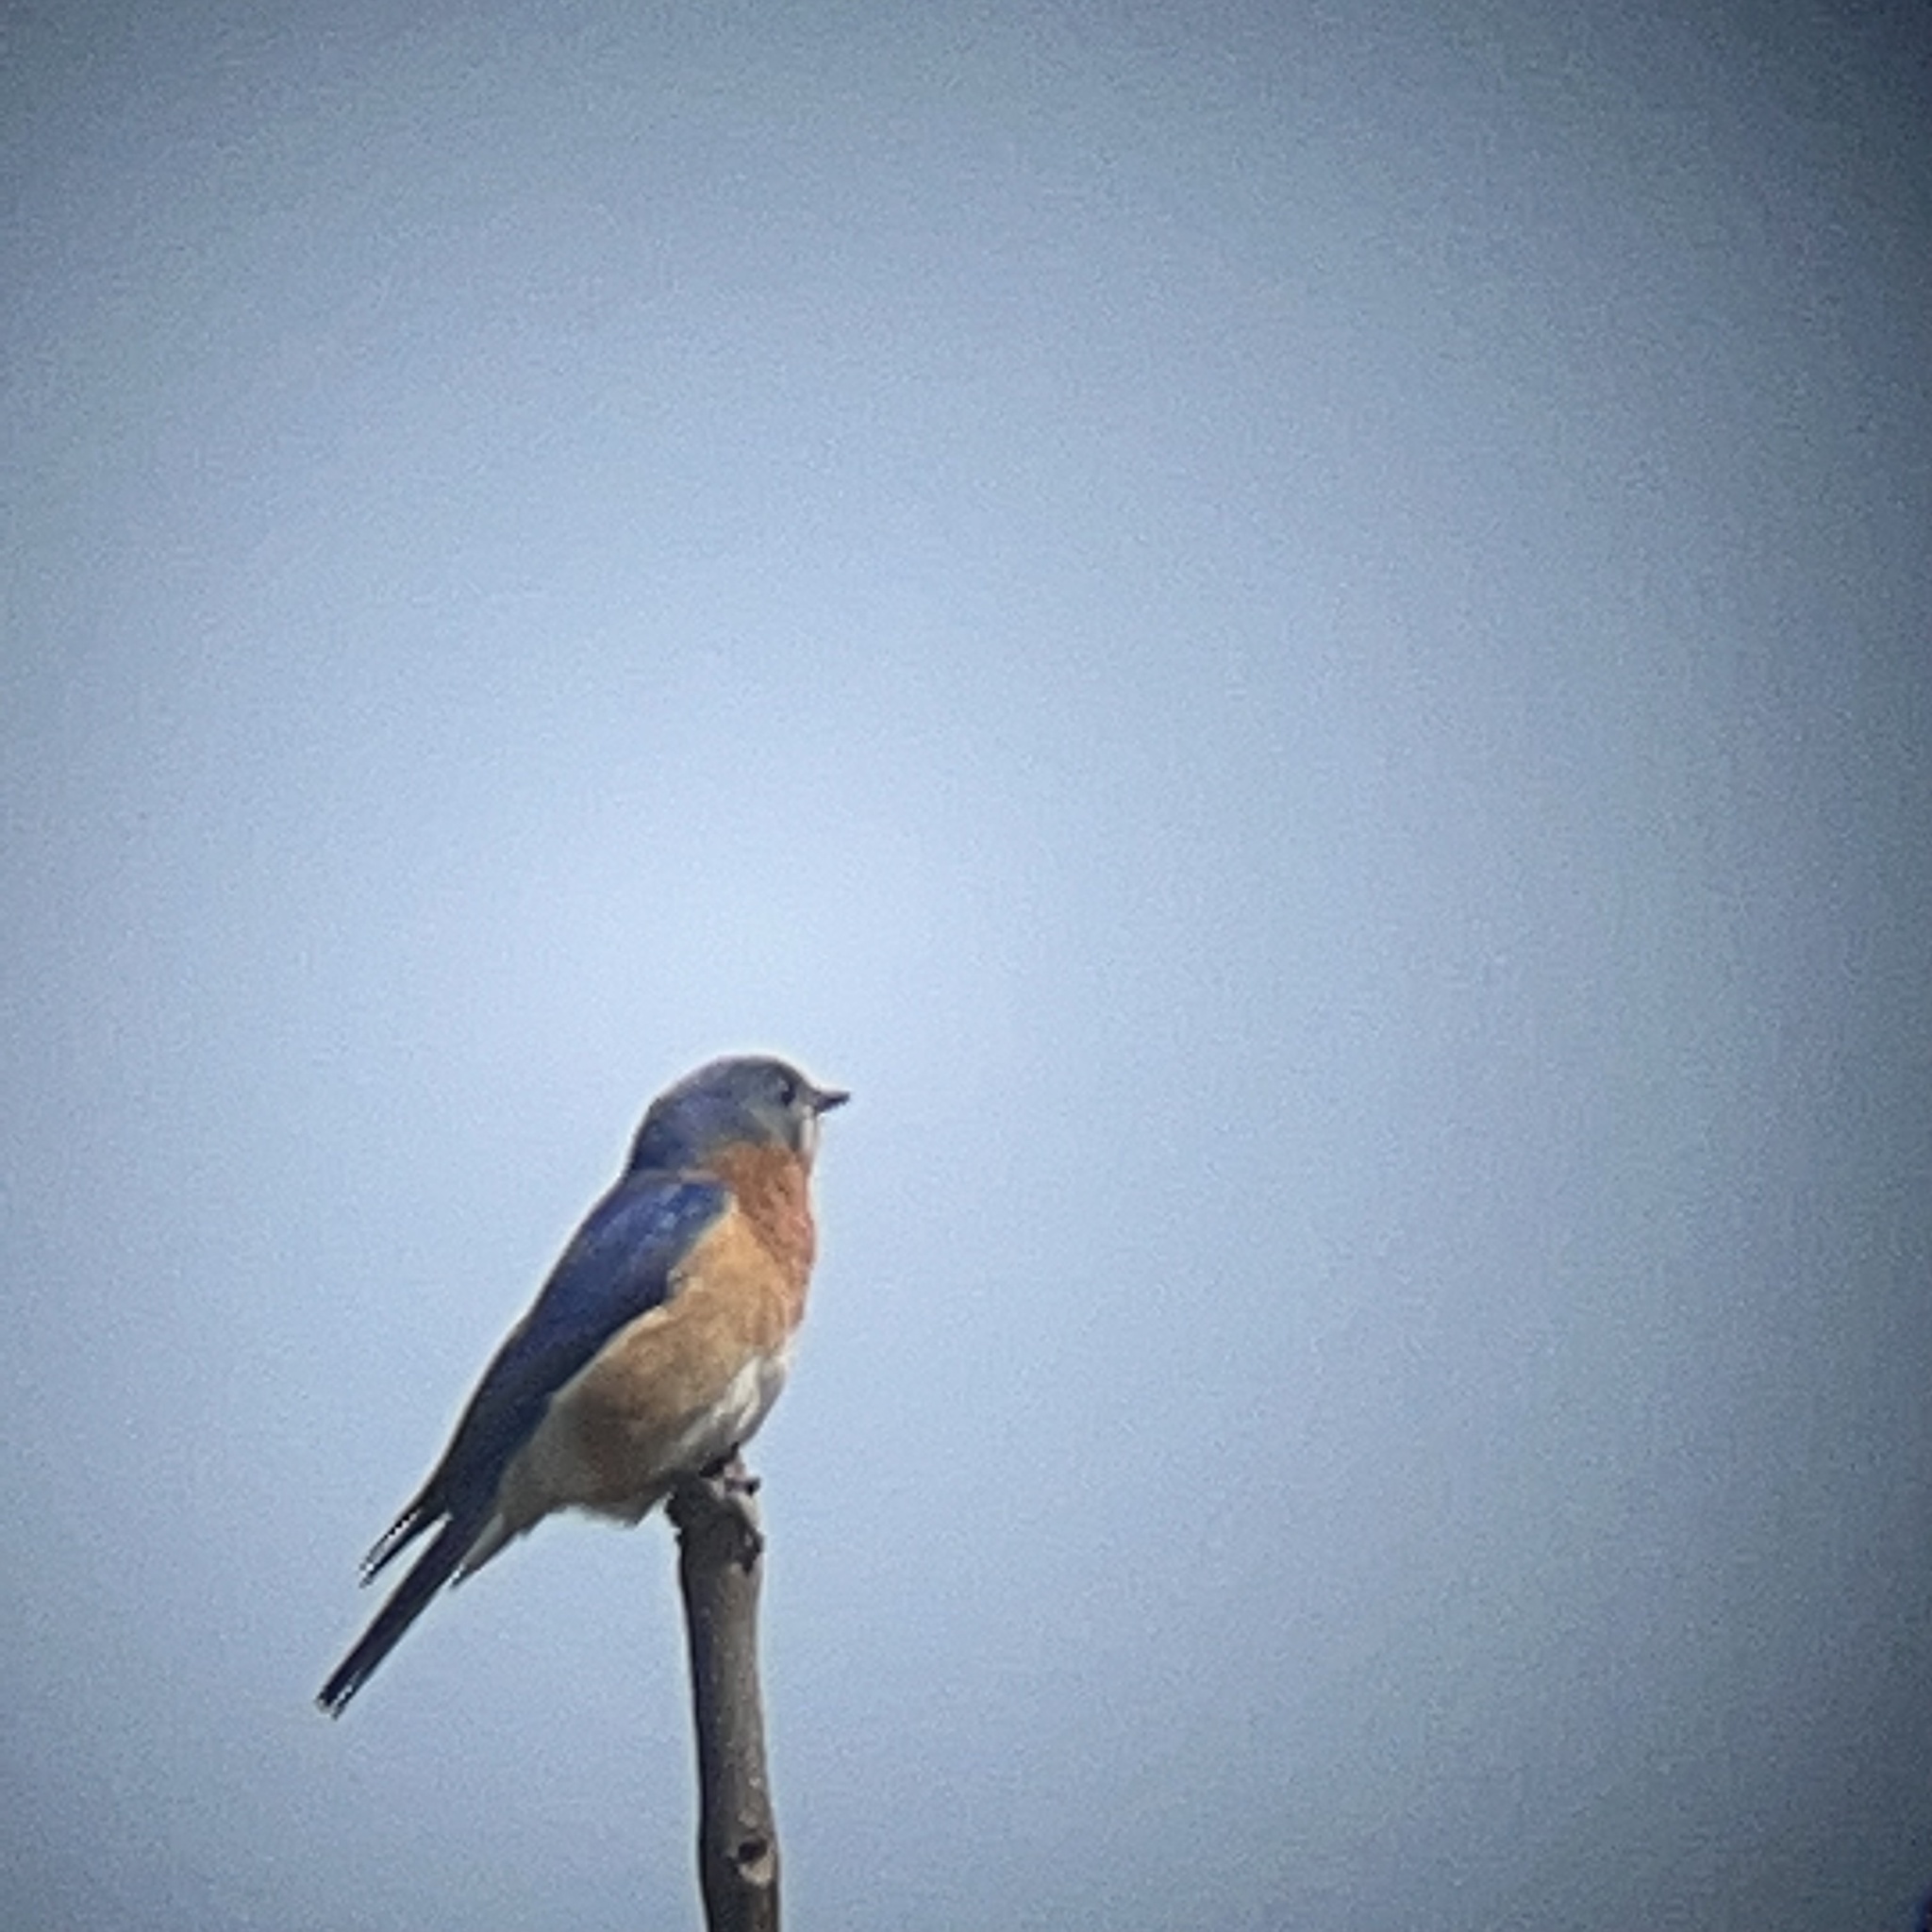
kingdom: Animalia
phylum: Chordata
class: Aves
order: Passeriformes
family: Turdidae
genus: Sialia
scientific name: Sialia sialis
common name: Eastern bluebird
